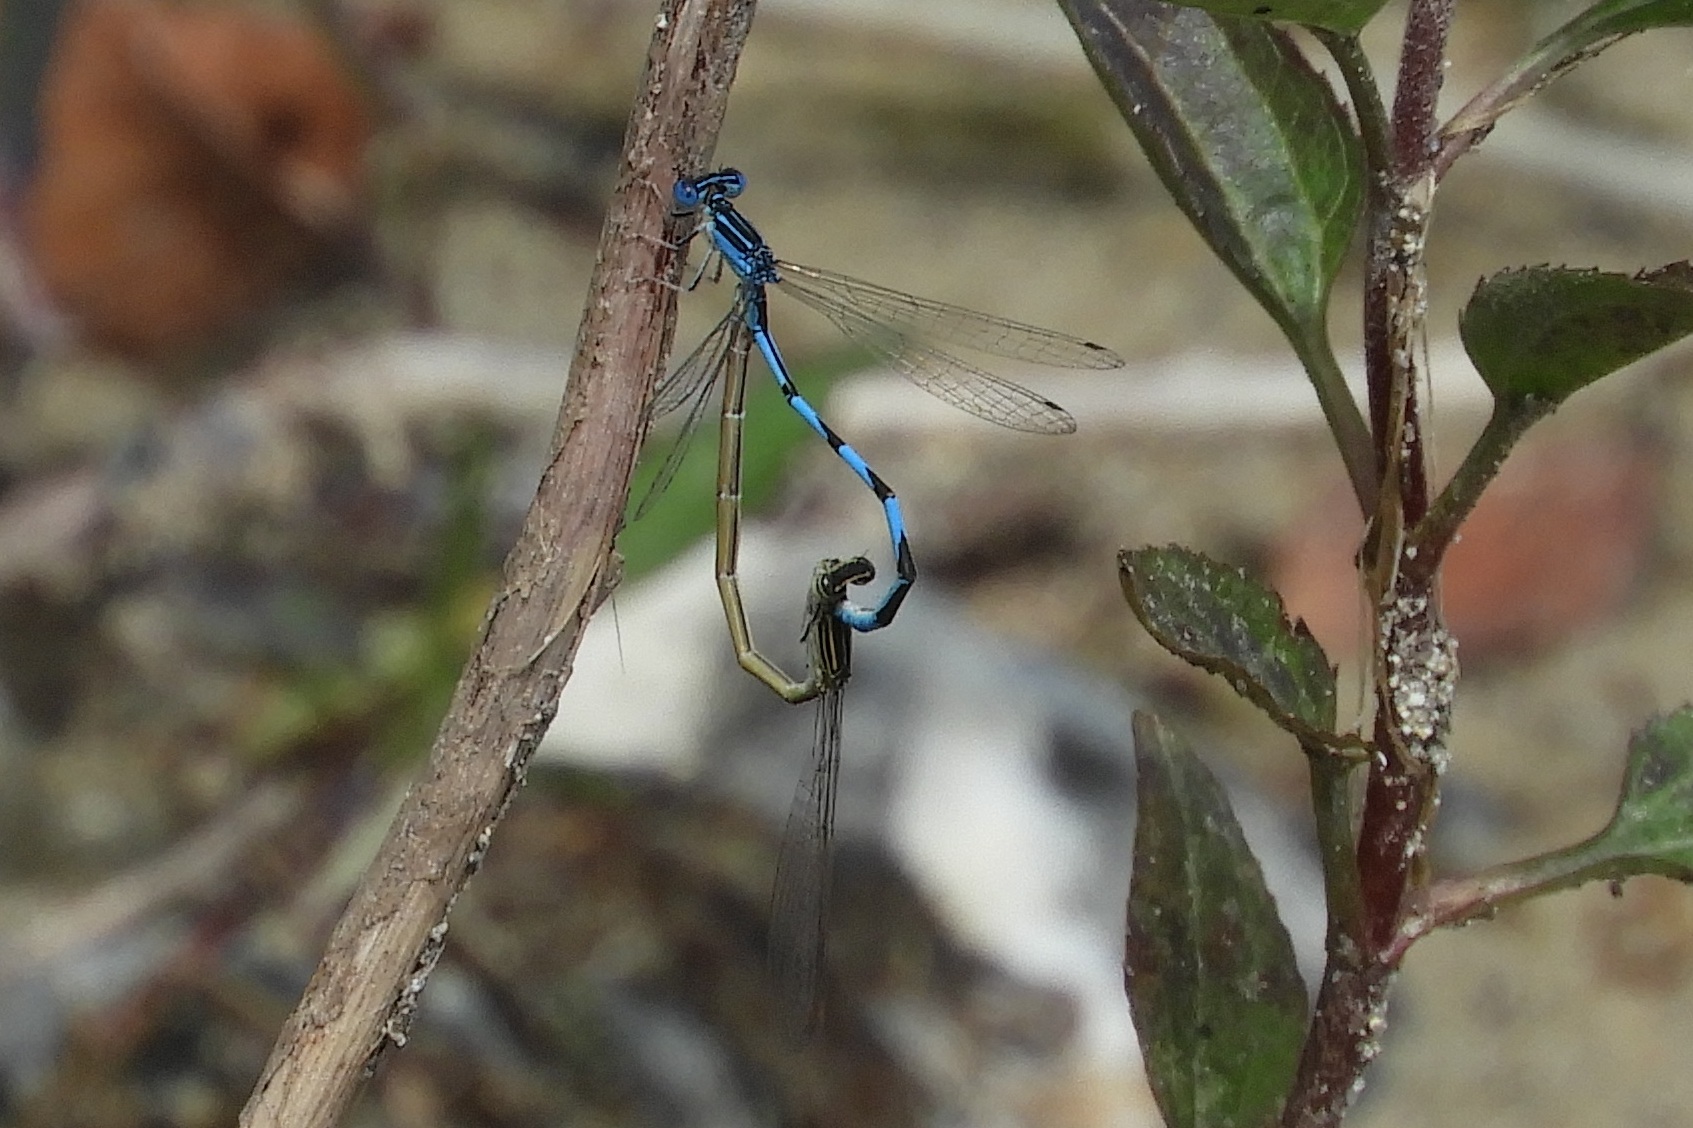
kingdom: Animalia
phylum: Arthropoda
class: Insecta
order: Odonata
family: Coenagrionidae
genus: Enallagma
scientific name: Enallagma basidens
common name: Double-striped bluet
